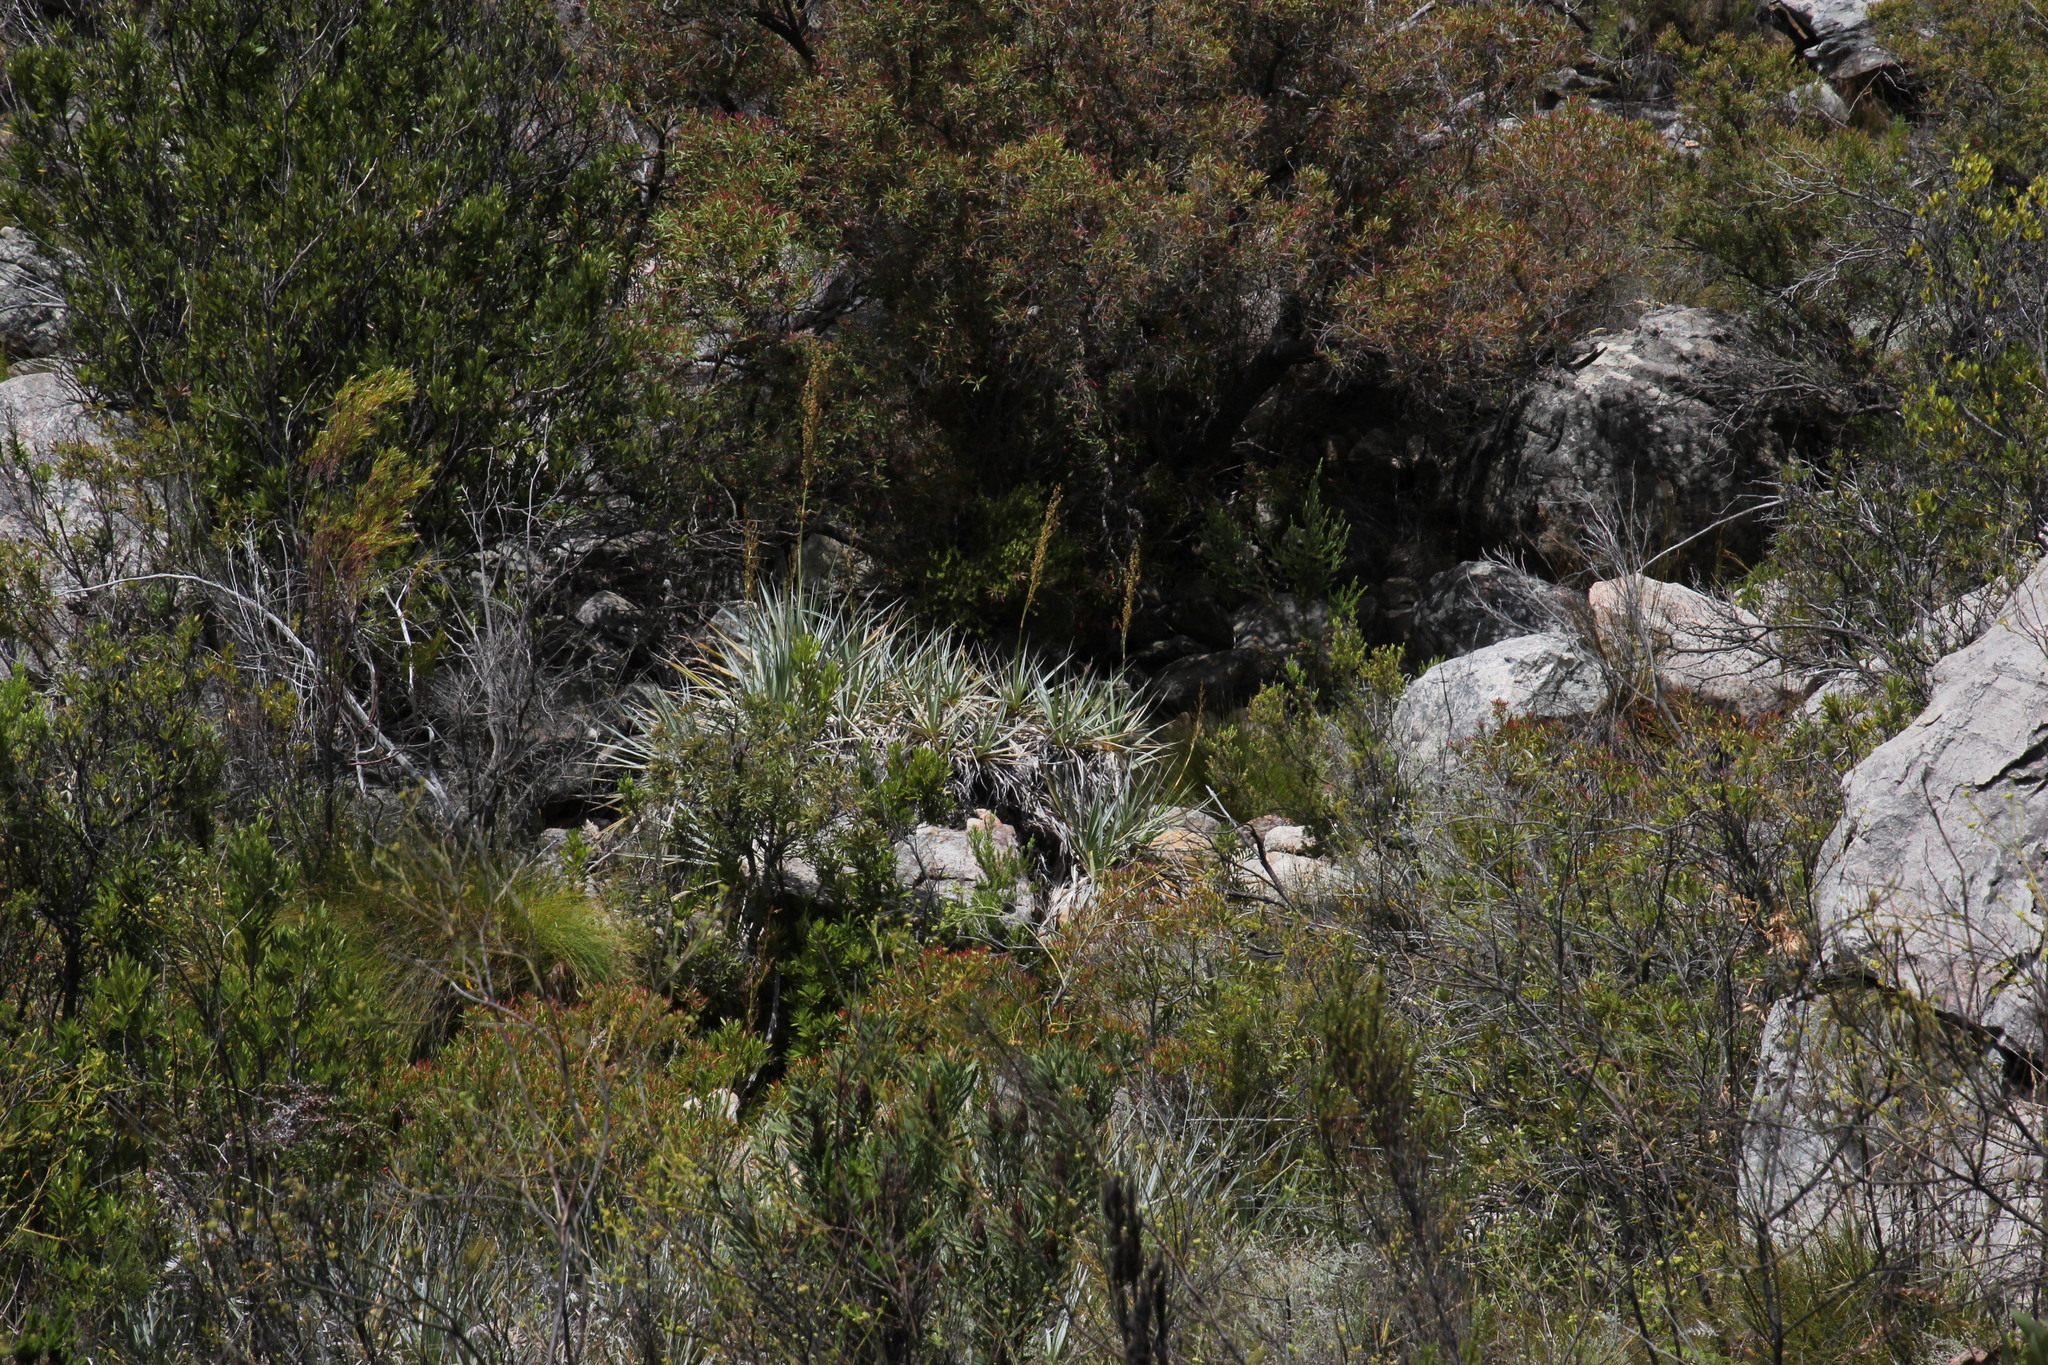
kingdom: Plantae
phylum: Tracheophyta
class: Liliopsida
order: Poales
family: Thurniaceae
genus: Prionium
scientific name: Prionium serratum
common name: Palmiet
